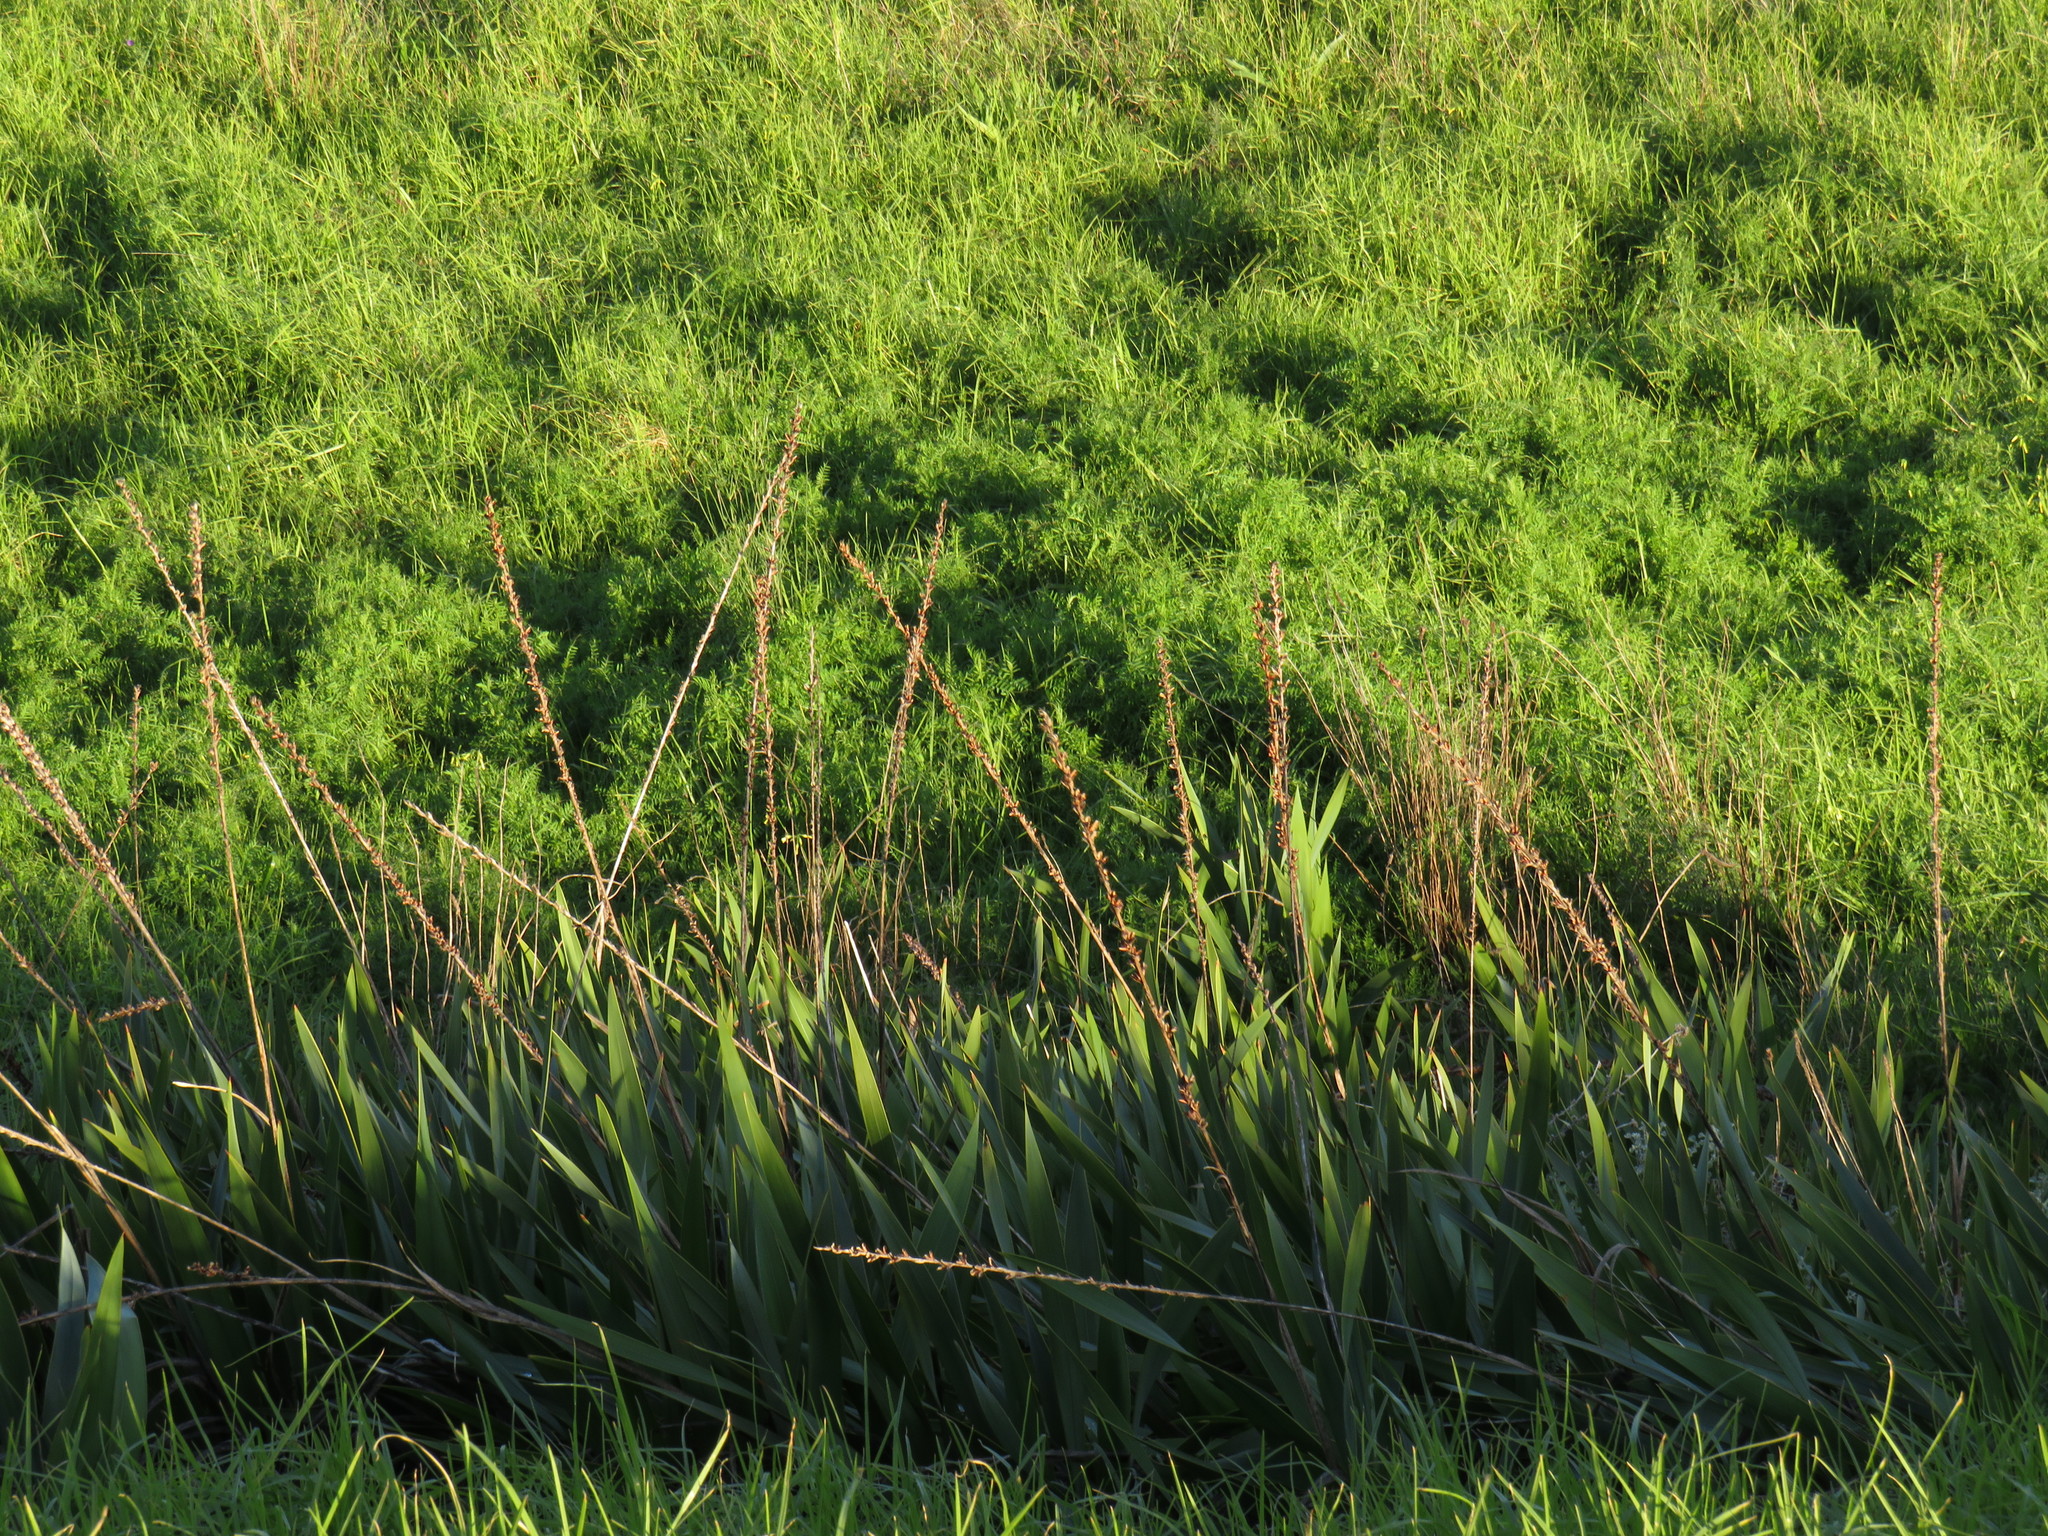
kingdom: Plantae
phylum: Tracheophyta
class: Liliopsida
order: Asparagales
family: Iridaceae
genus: Watsonia
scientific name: Watsonia meriana
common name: Bulbil bugle-lily
